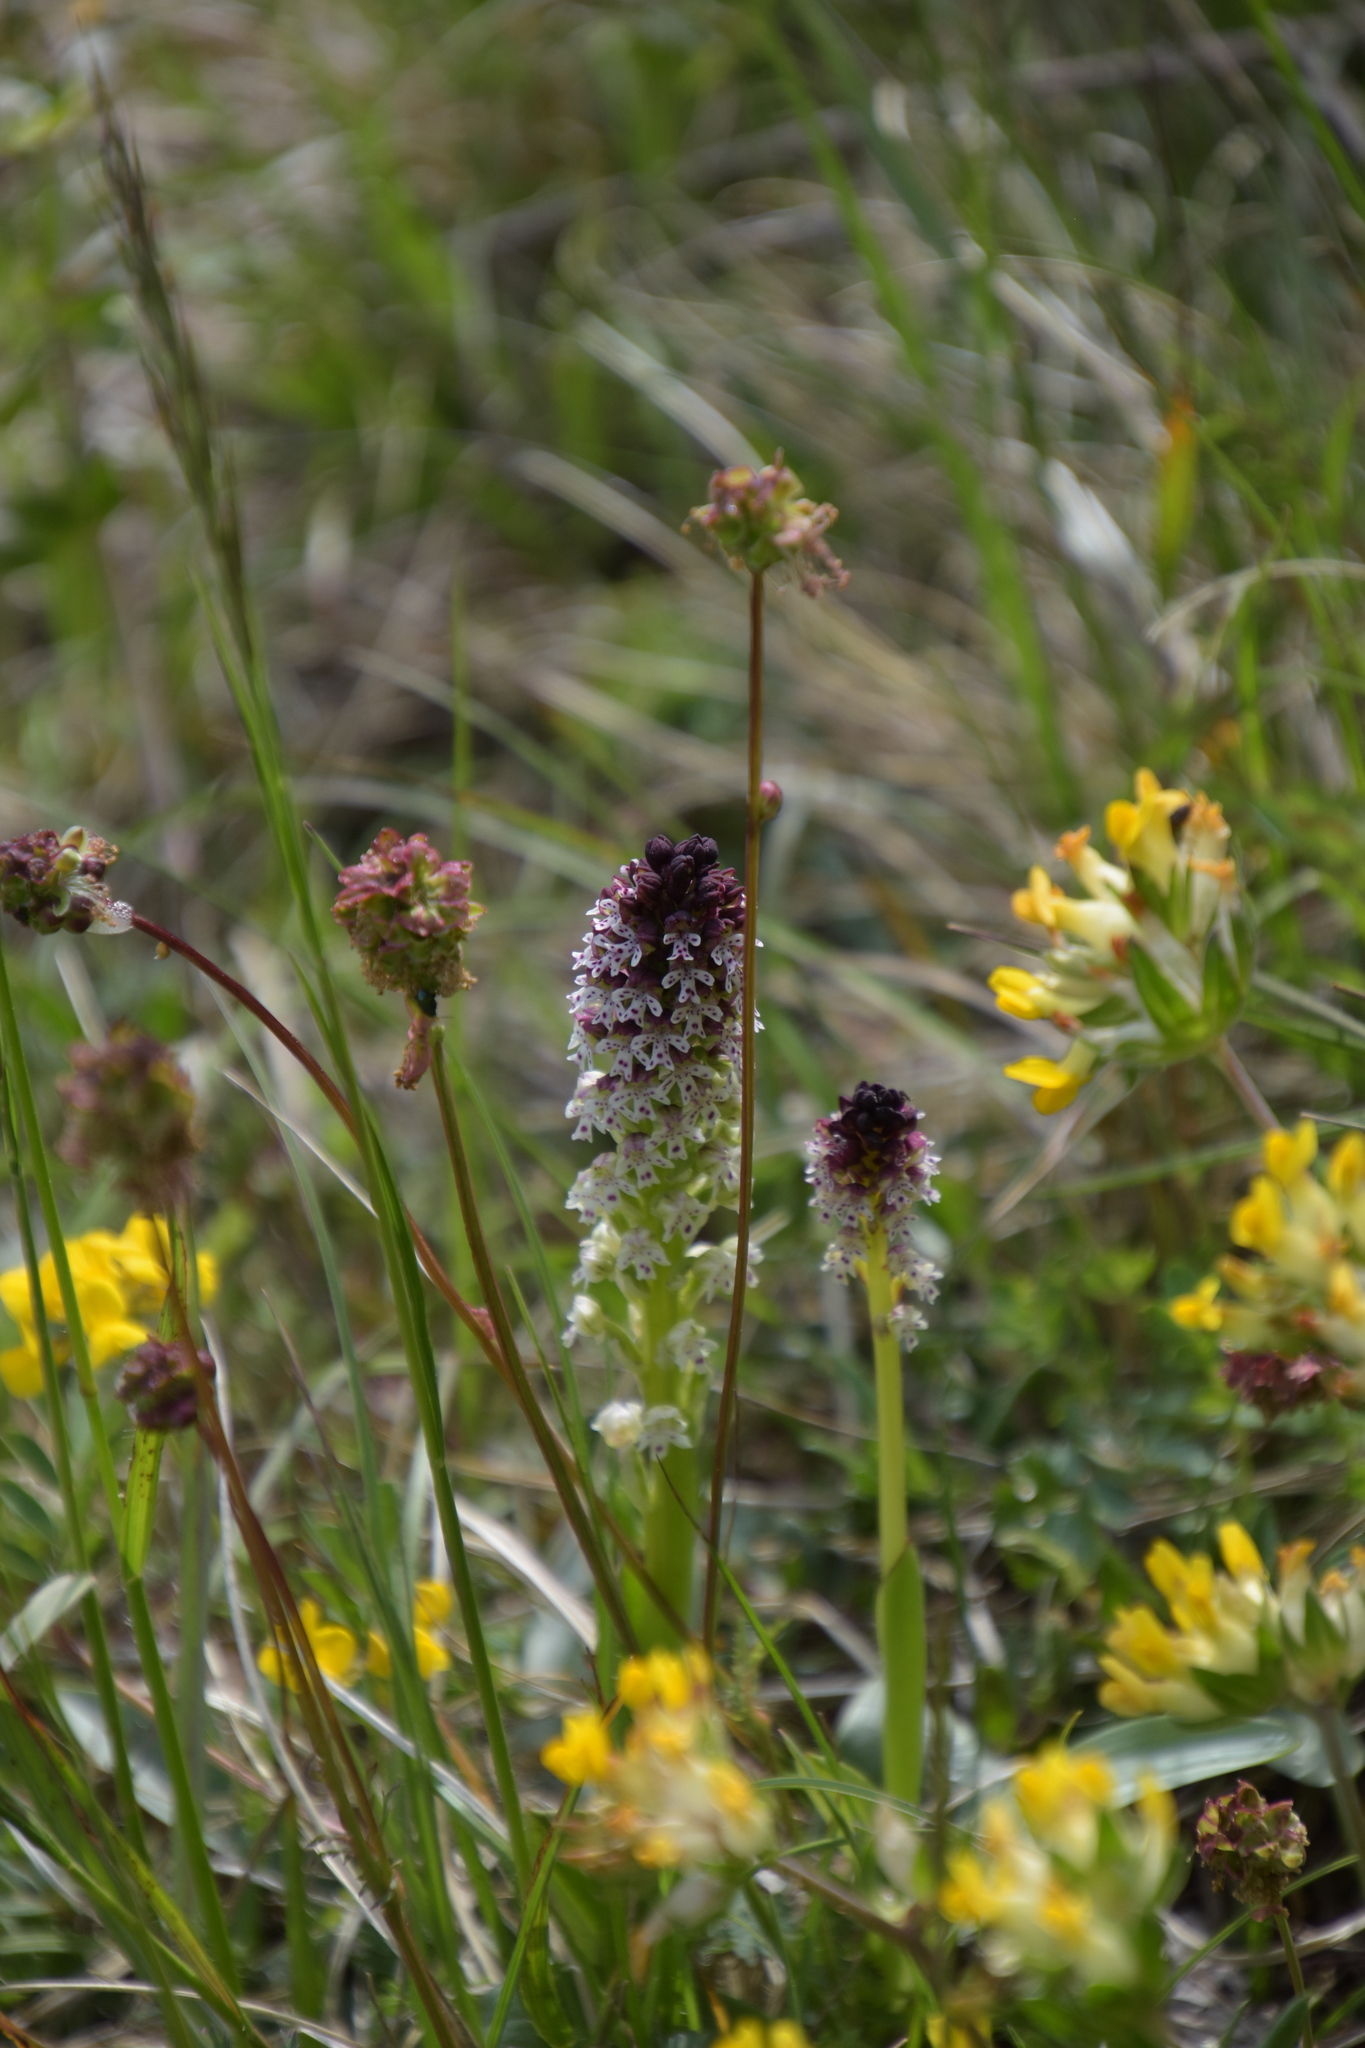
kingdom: Plantae
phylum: Tracheophyta
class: Liliopsida
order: Asparagales
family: Orchidaceae
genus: Neotinea
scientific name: Neotinea ustulata
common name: Burnt orchid
